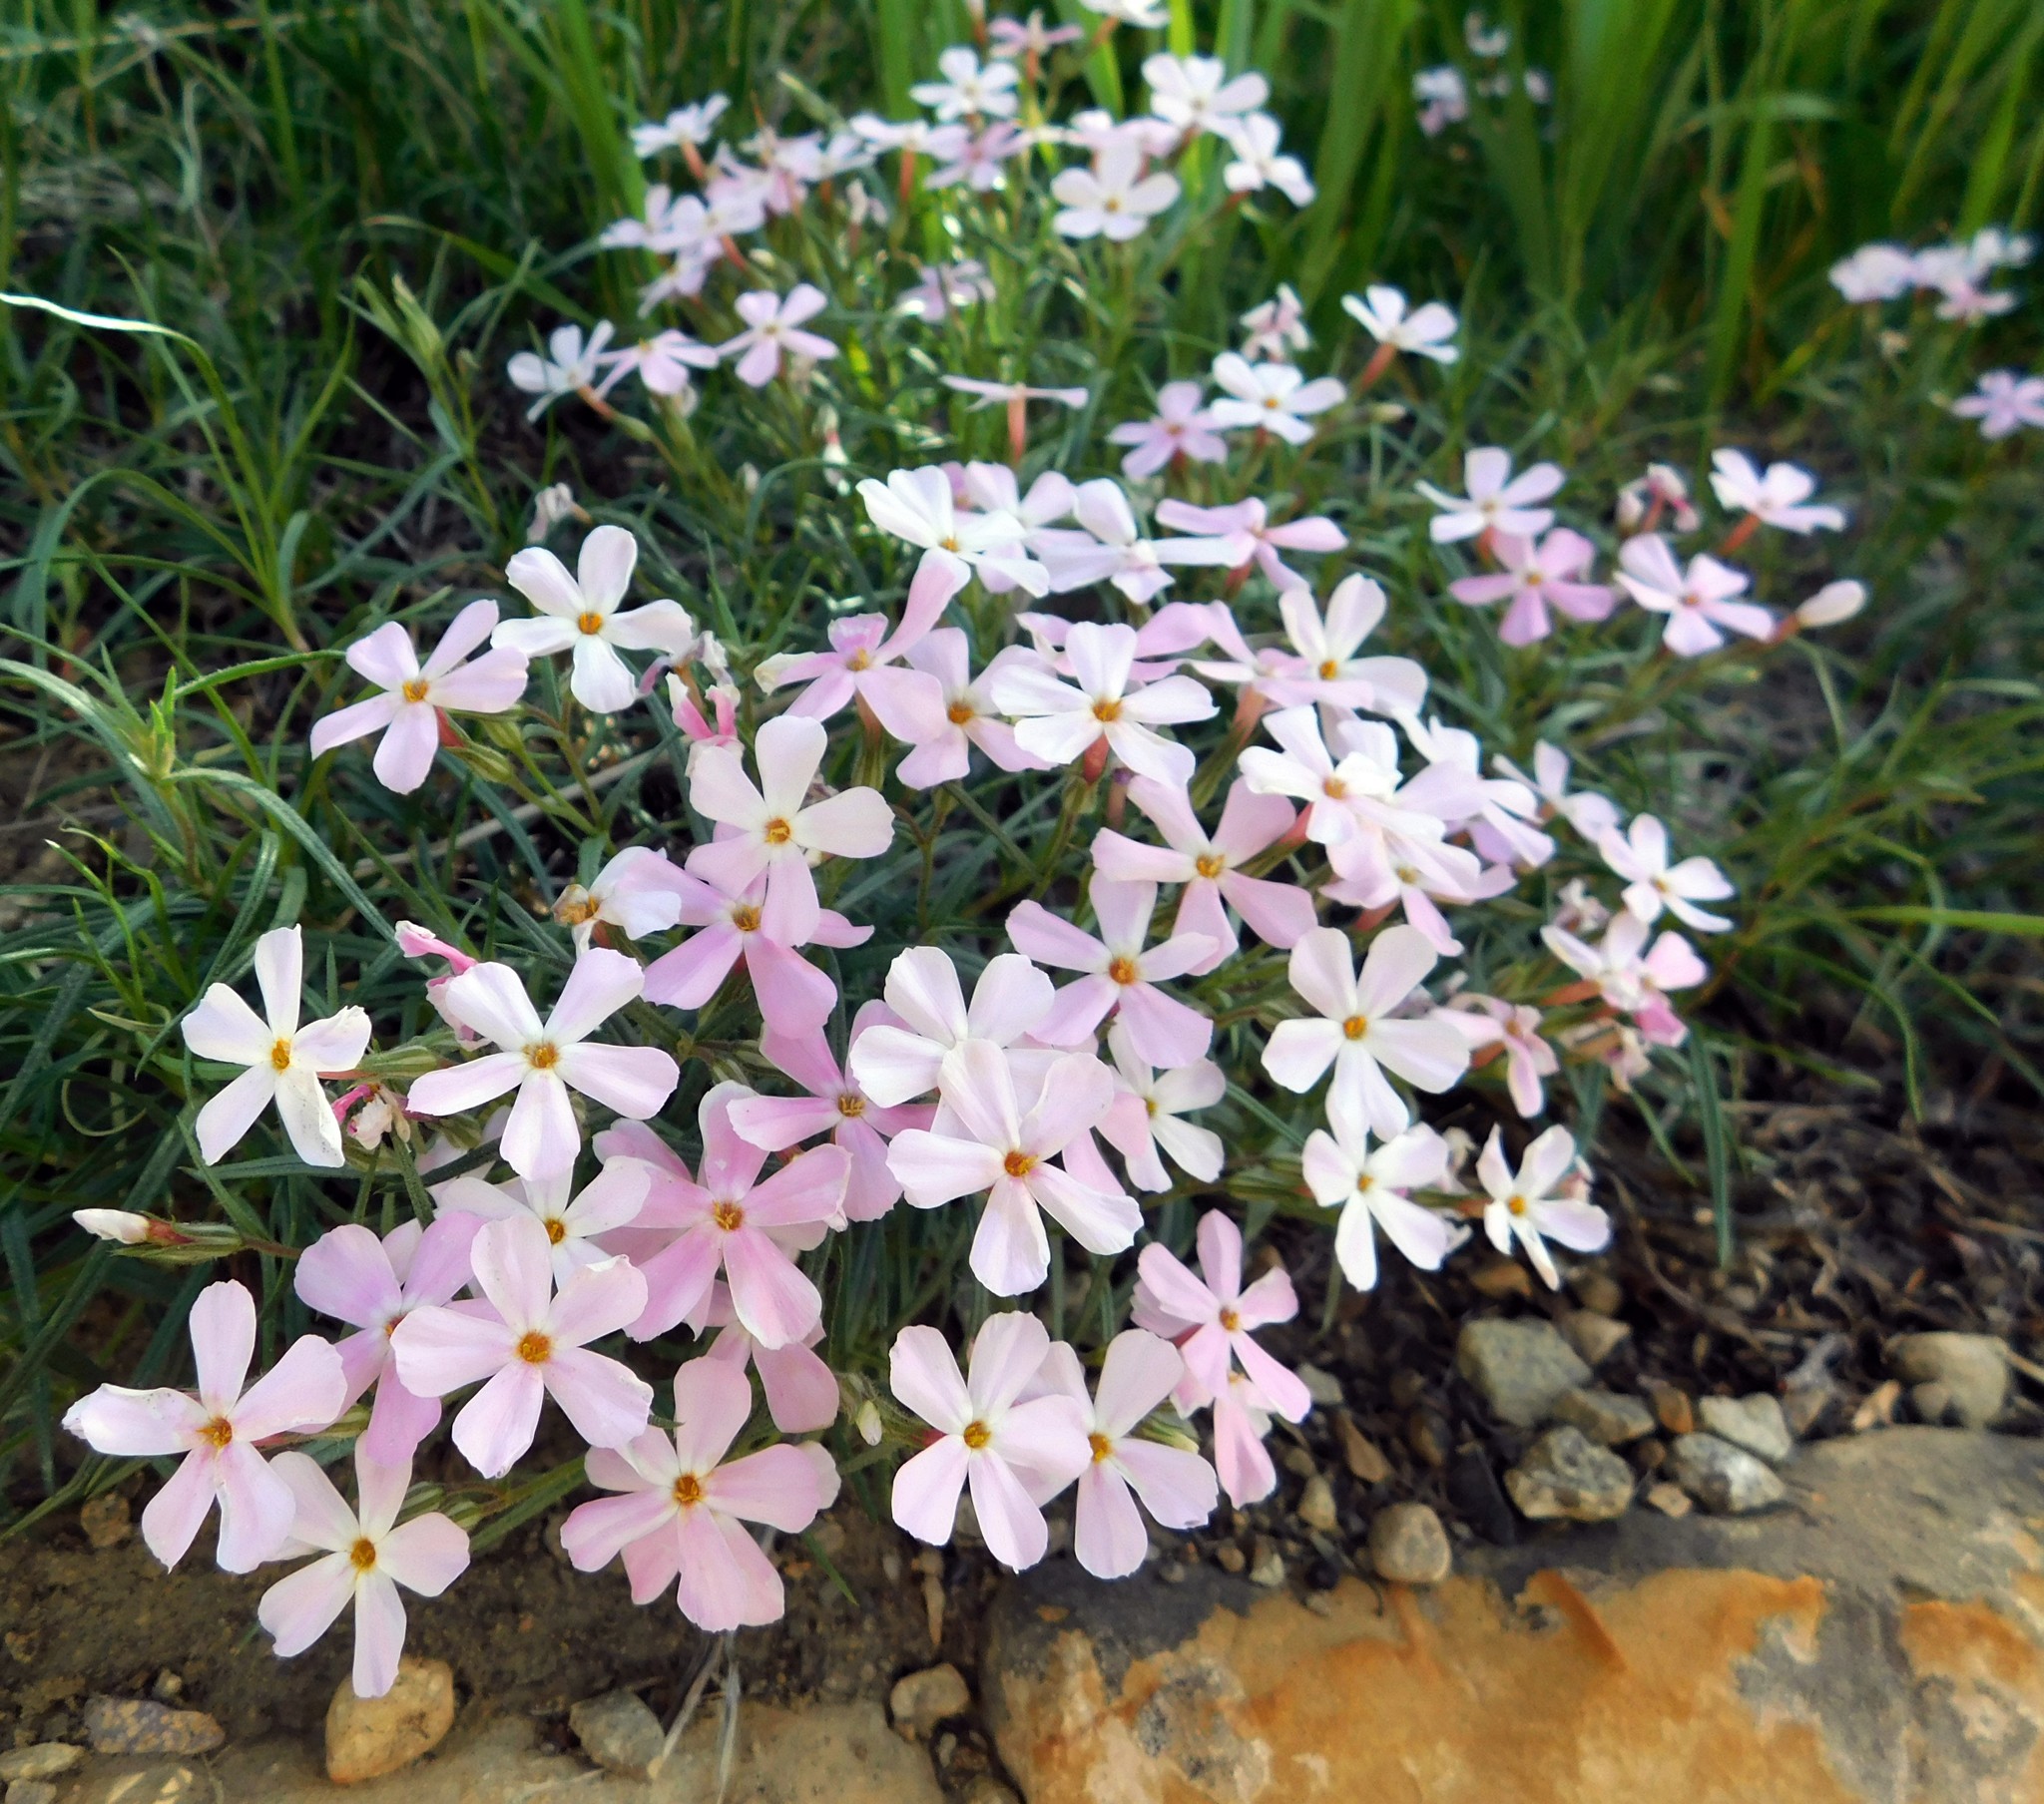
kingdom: Plantae
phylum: Tracheophyta
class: Magnoliopsida
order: Ericales
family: Polemoniaceae
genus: Phlox
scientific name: Phlox longifolia
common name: Longleaf phlox
